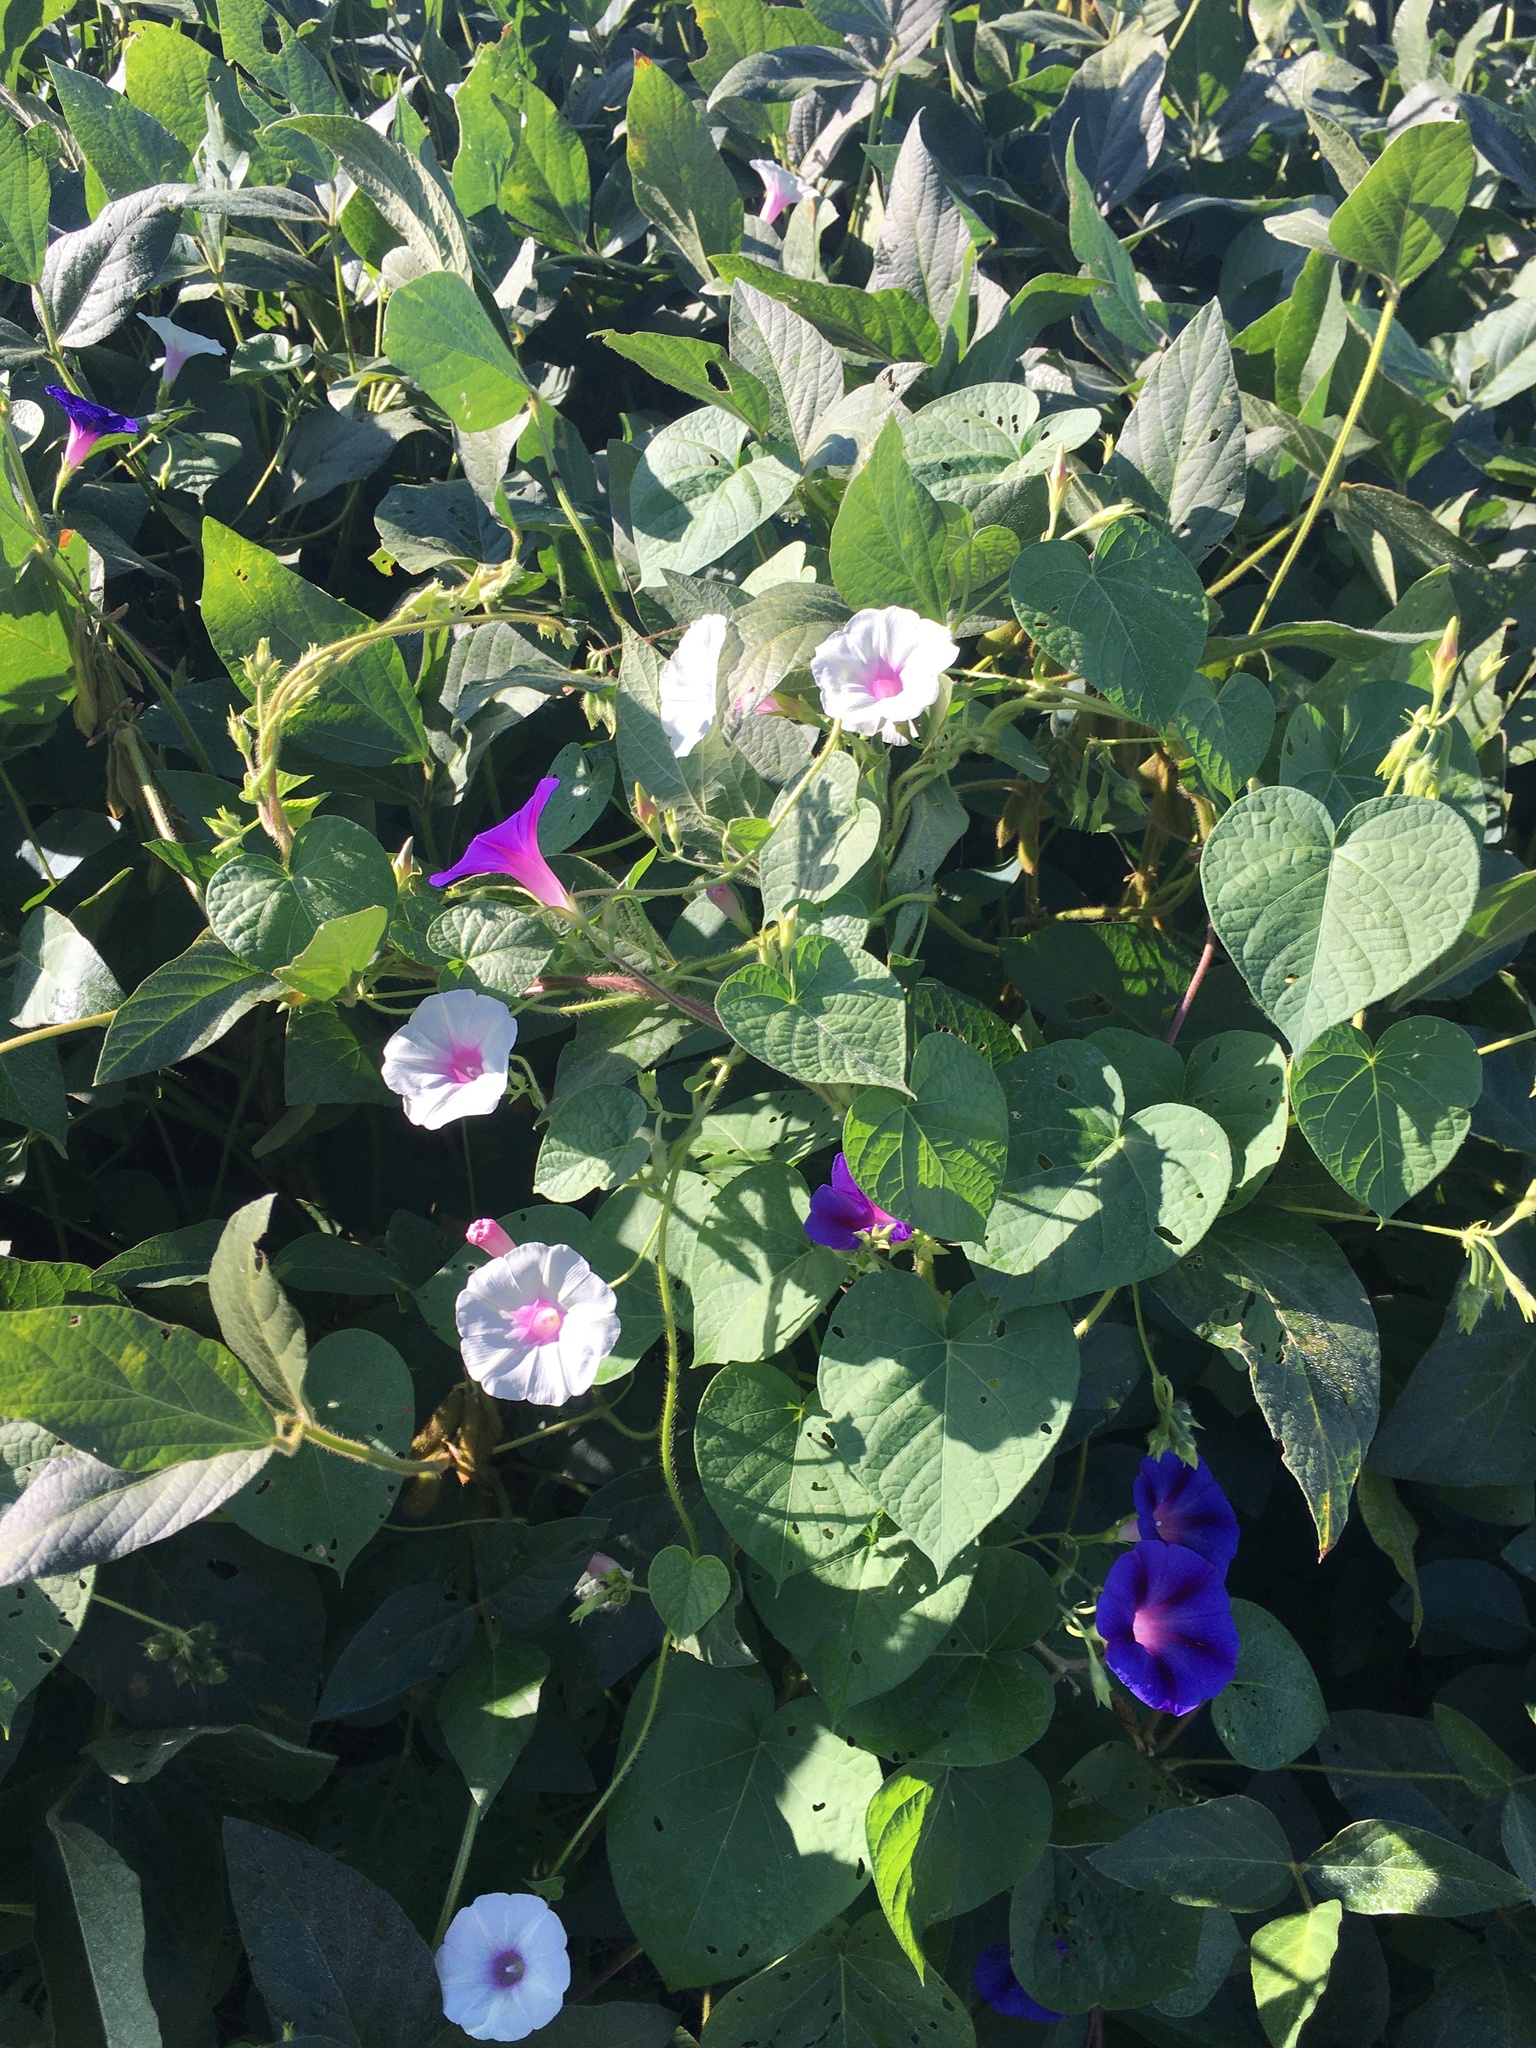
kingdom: Plantae
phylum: Tracheophyta
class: Magnoliopsida
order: Solanales
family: Convolvulaceae
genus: Ipomoea
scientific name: Ipomoea purpurea
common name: Common morning-glory
